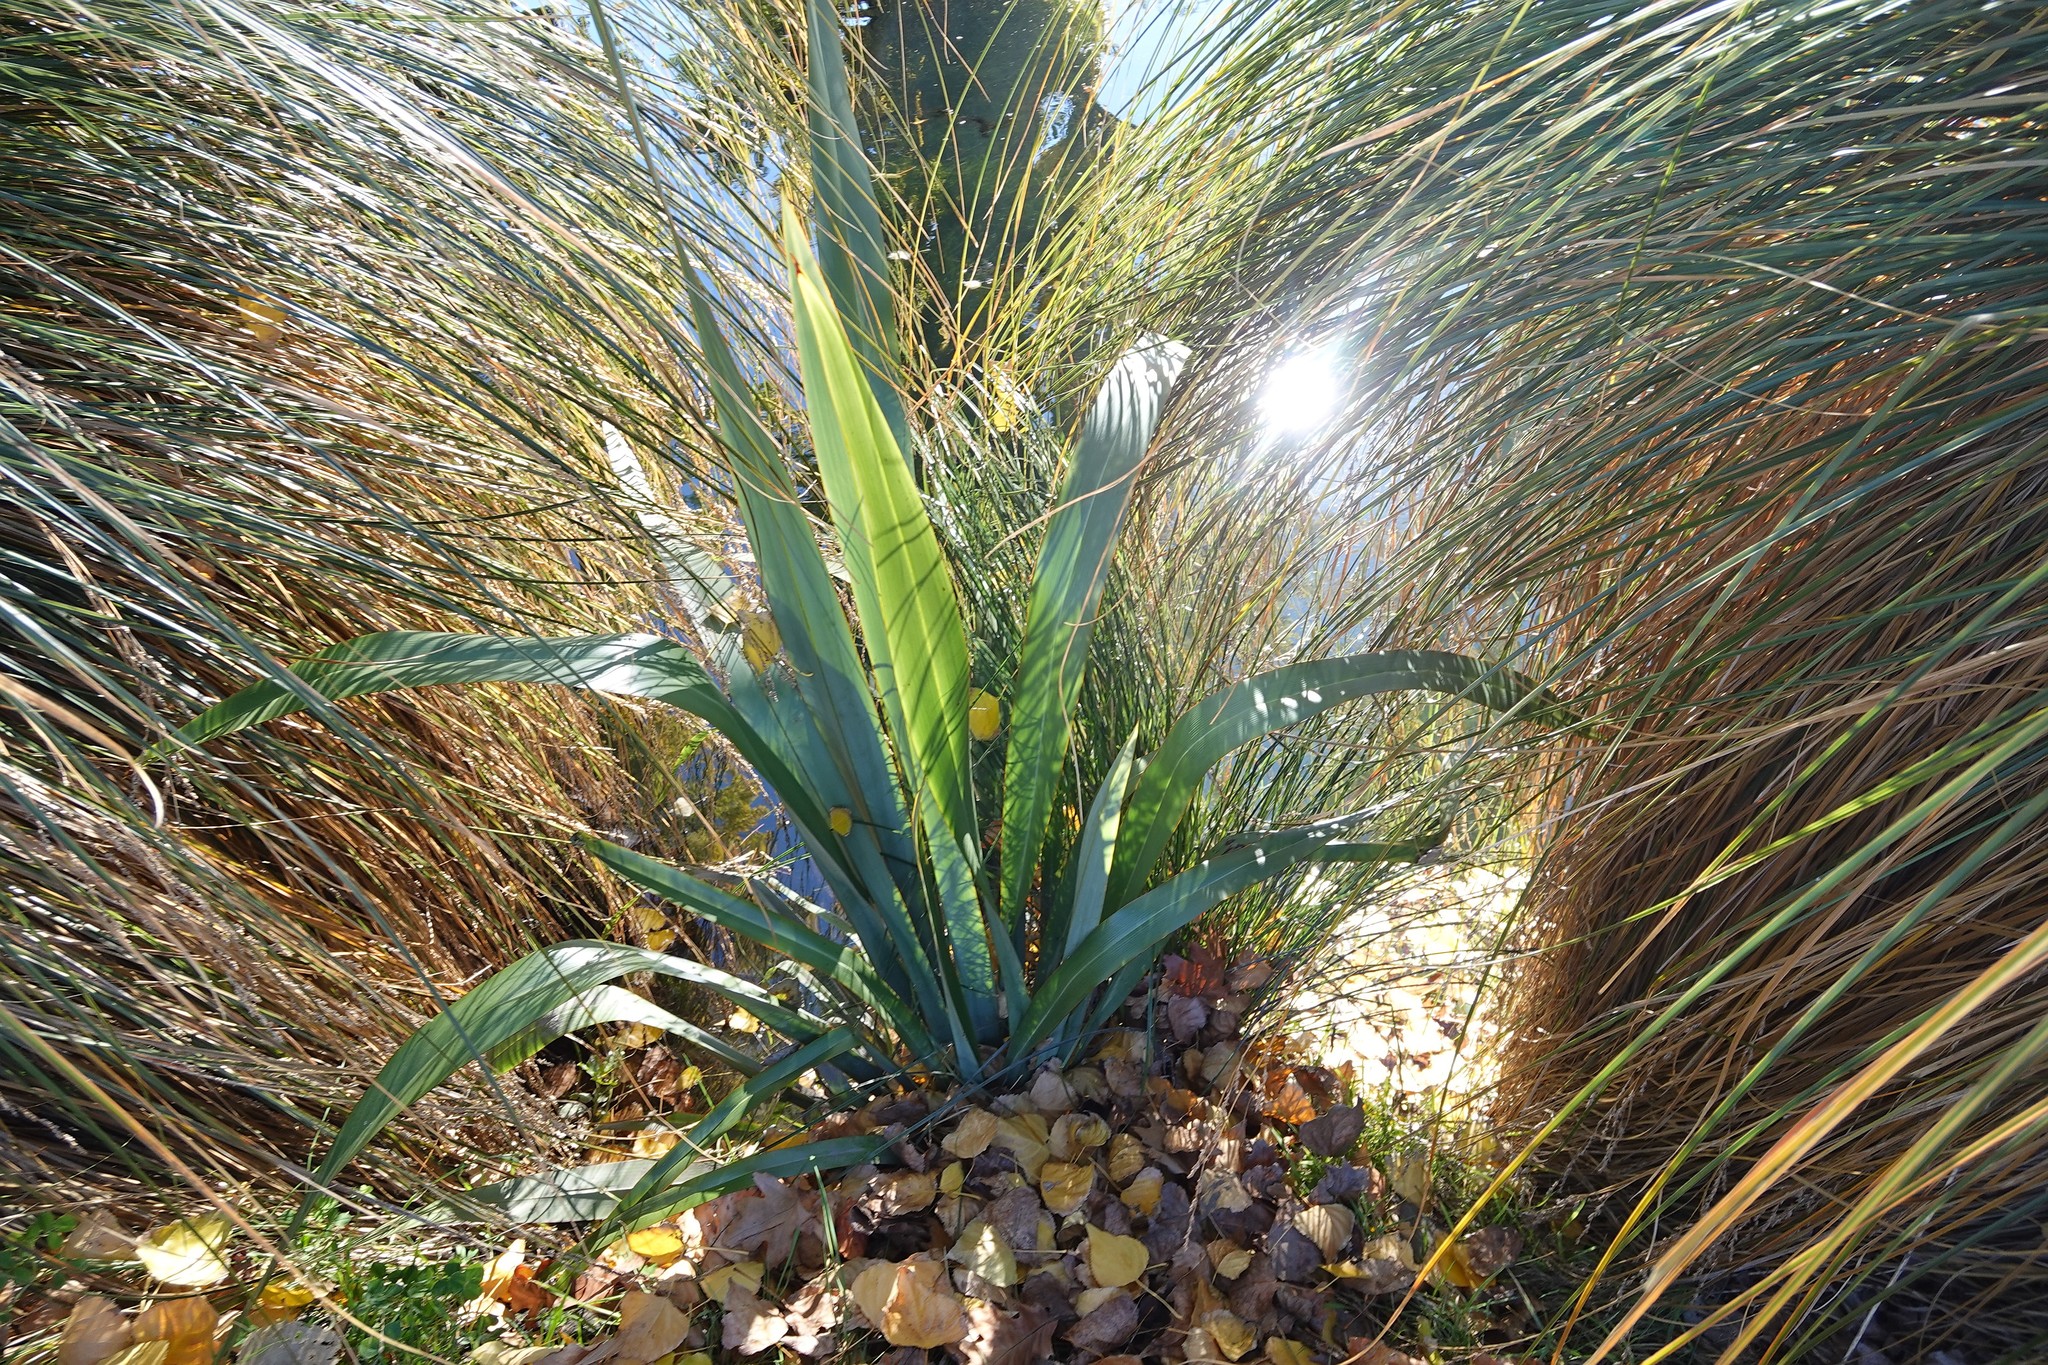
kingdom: Plantae
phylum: Tracheophyta
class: Liliopsida
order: Asparagales
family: Asphodelaceae
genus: Phormium
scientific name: Phormium tenax
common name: New zealand flax
